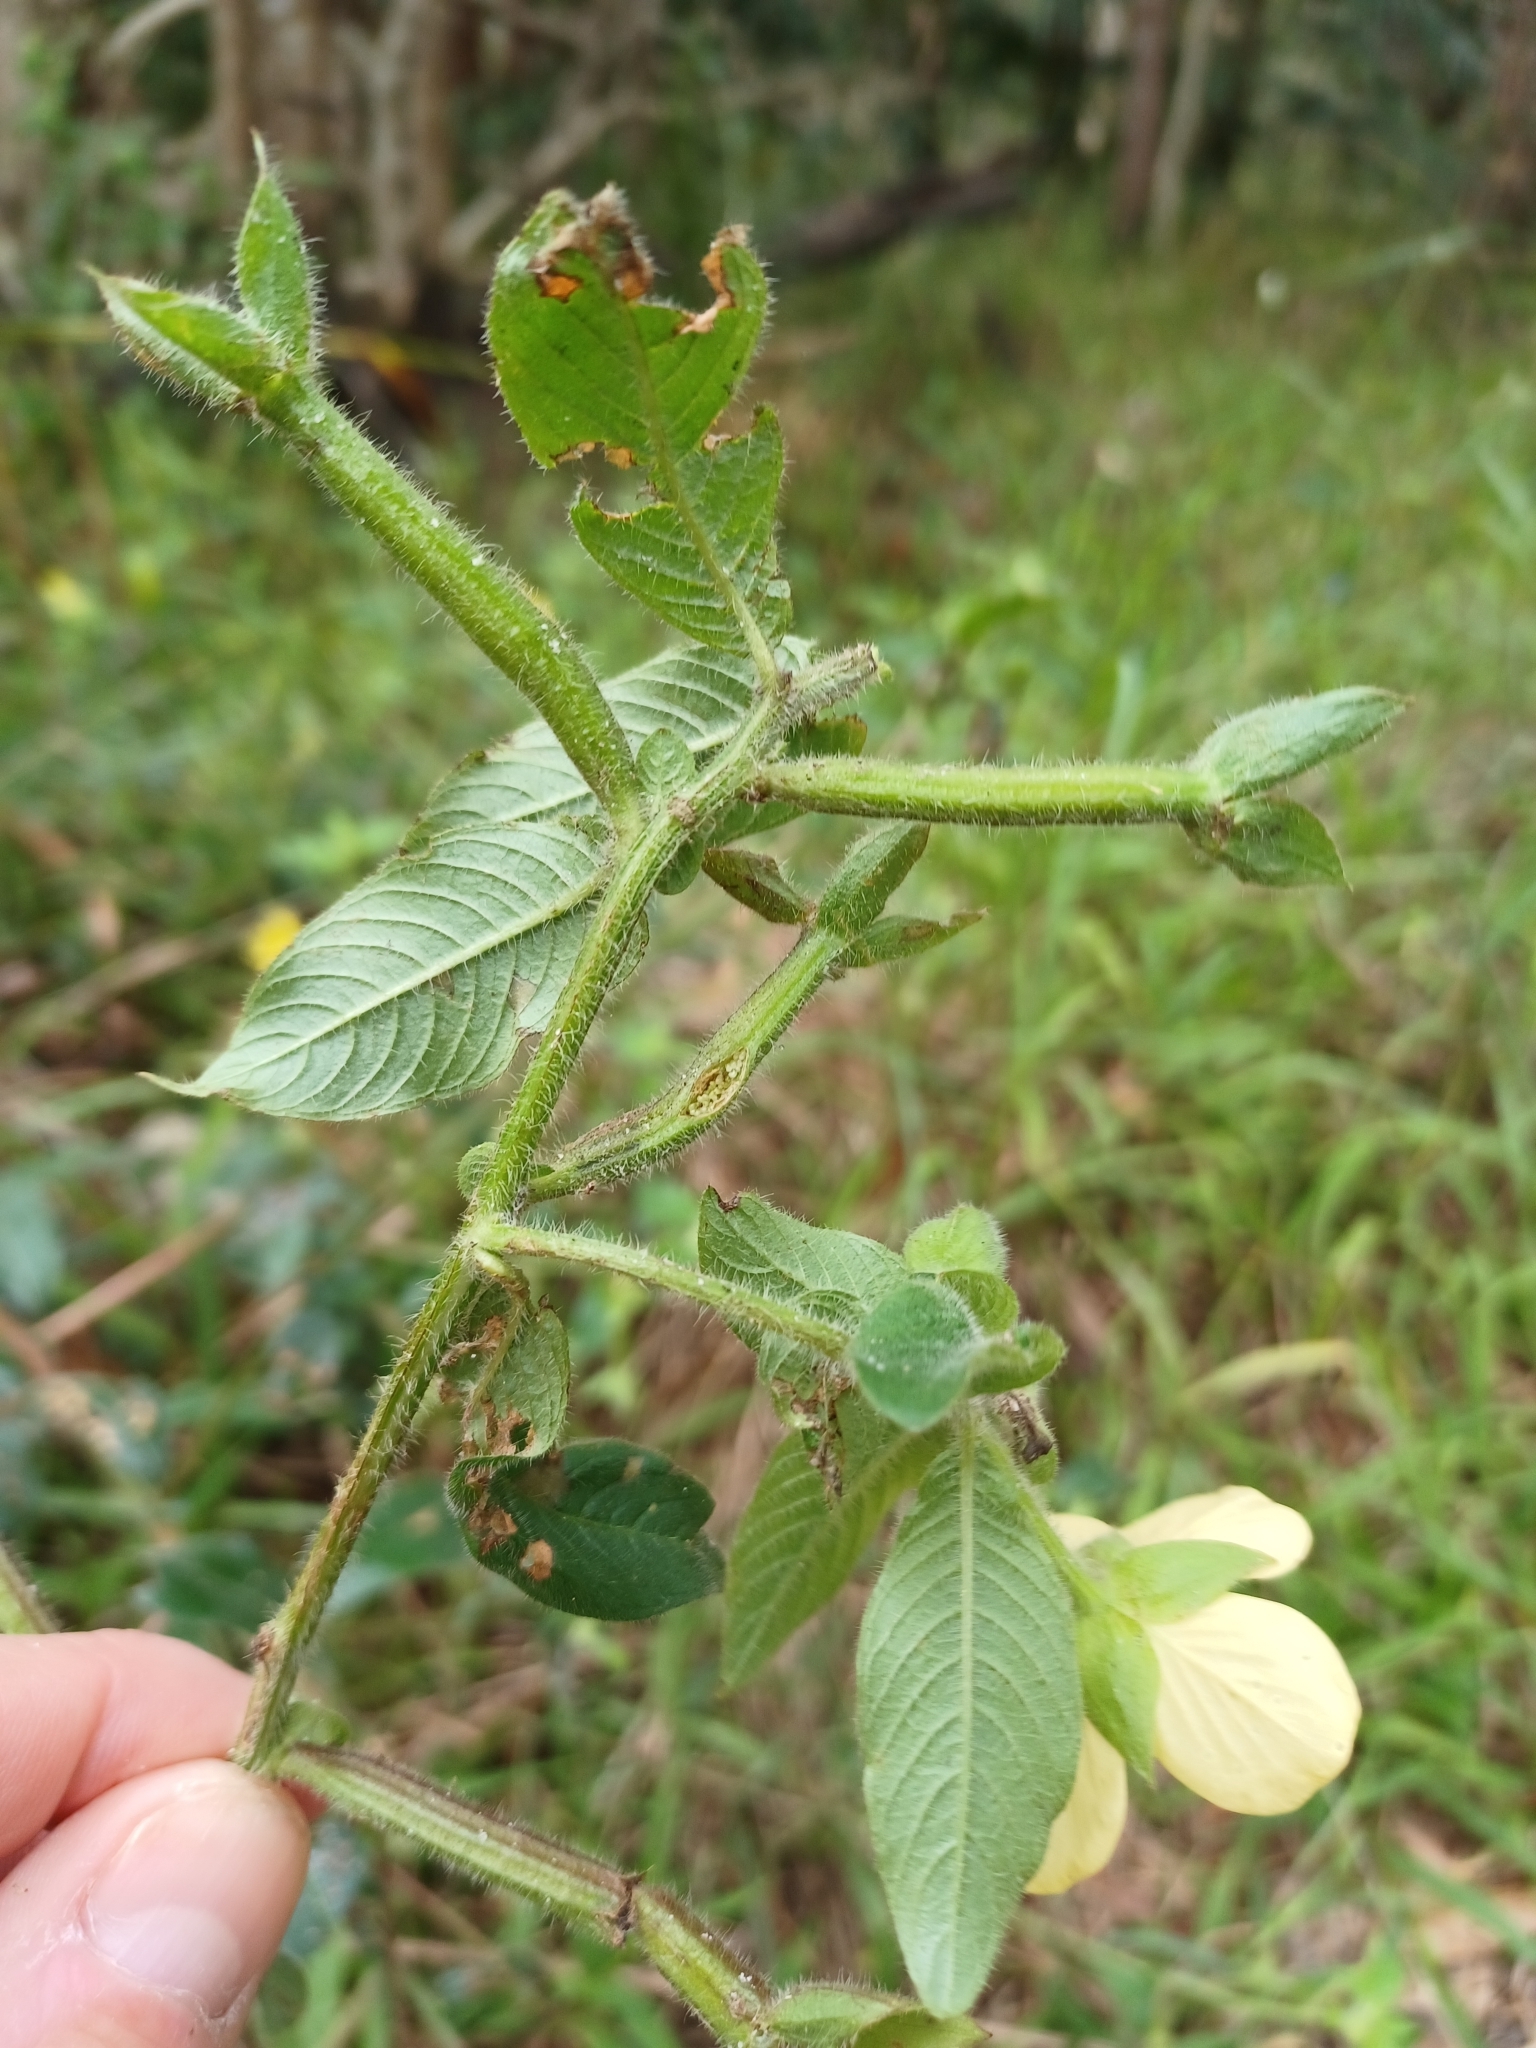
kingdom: Plantae
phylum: Tracheophyta
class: Magnoliopsida
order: Myrtales
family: Onagraceae
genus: Ludwigia
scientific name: Ludwigia octovalvis
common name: Water-primrose
